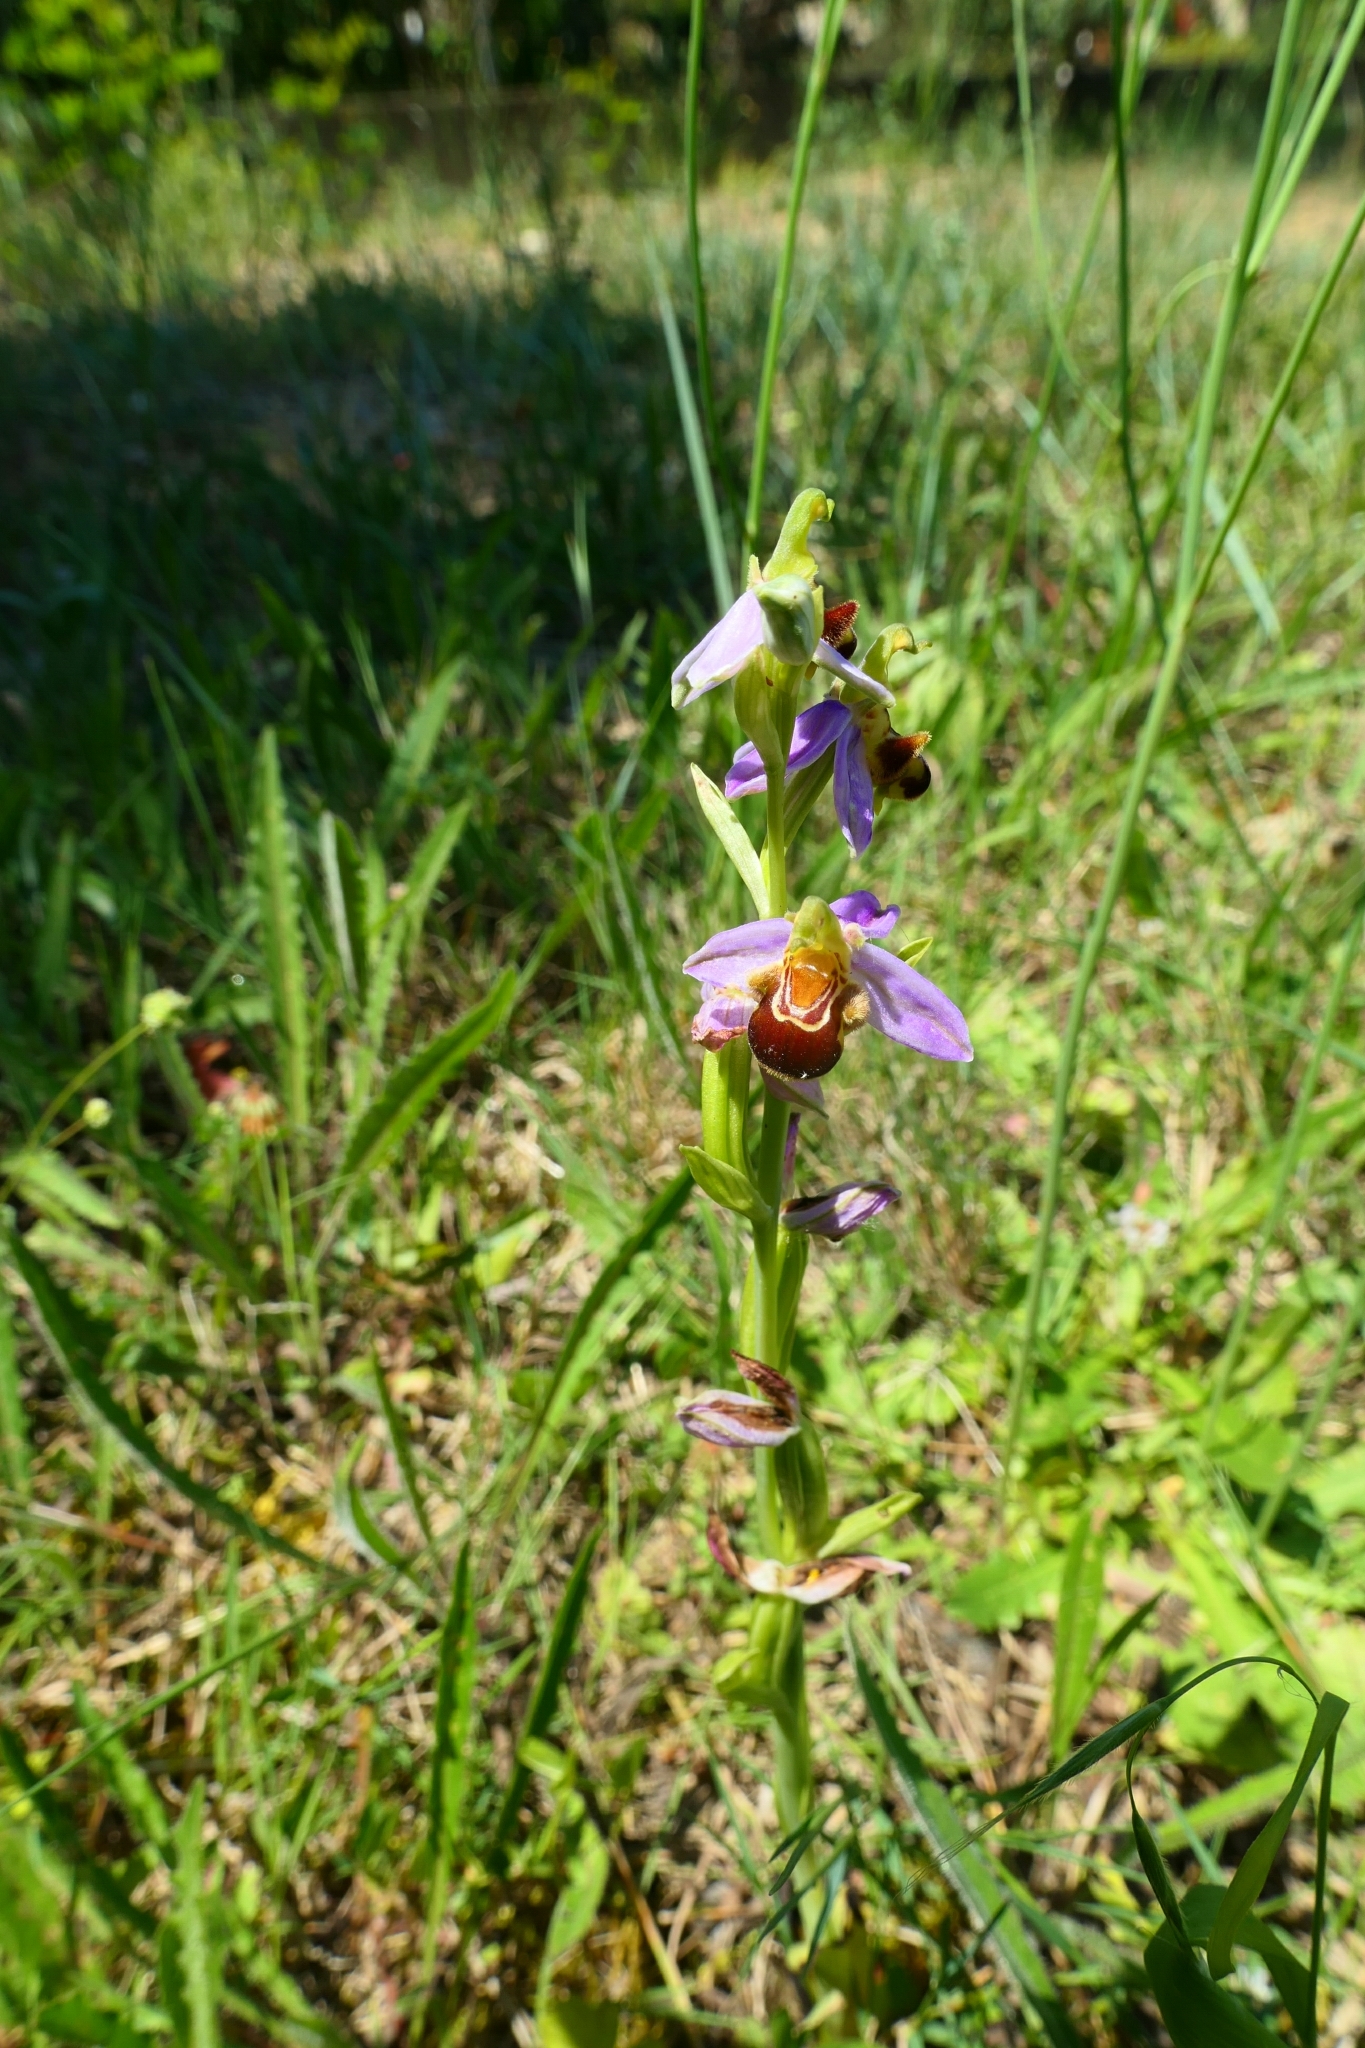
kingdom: Plantae
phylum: Tracheophyta
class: Liliopsida
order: Asparagales
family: Orchidaceae
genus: Ophrys
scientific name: Ophrys apifera
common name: Bee orchid
